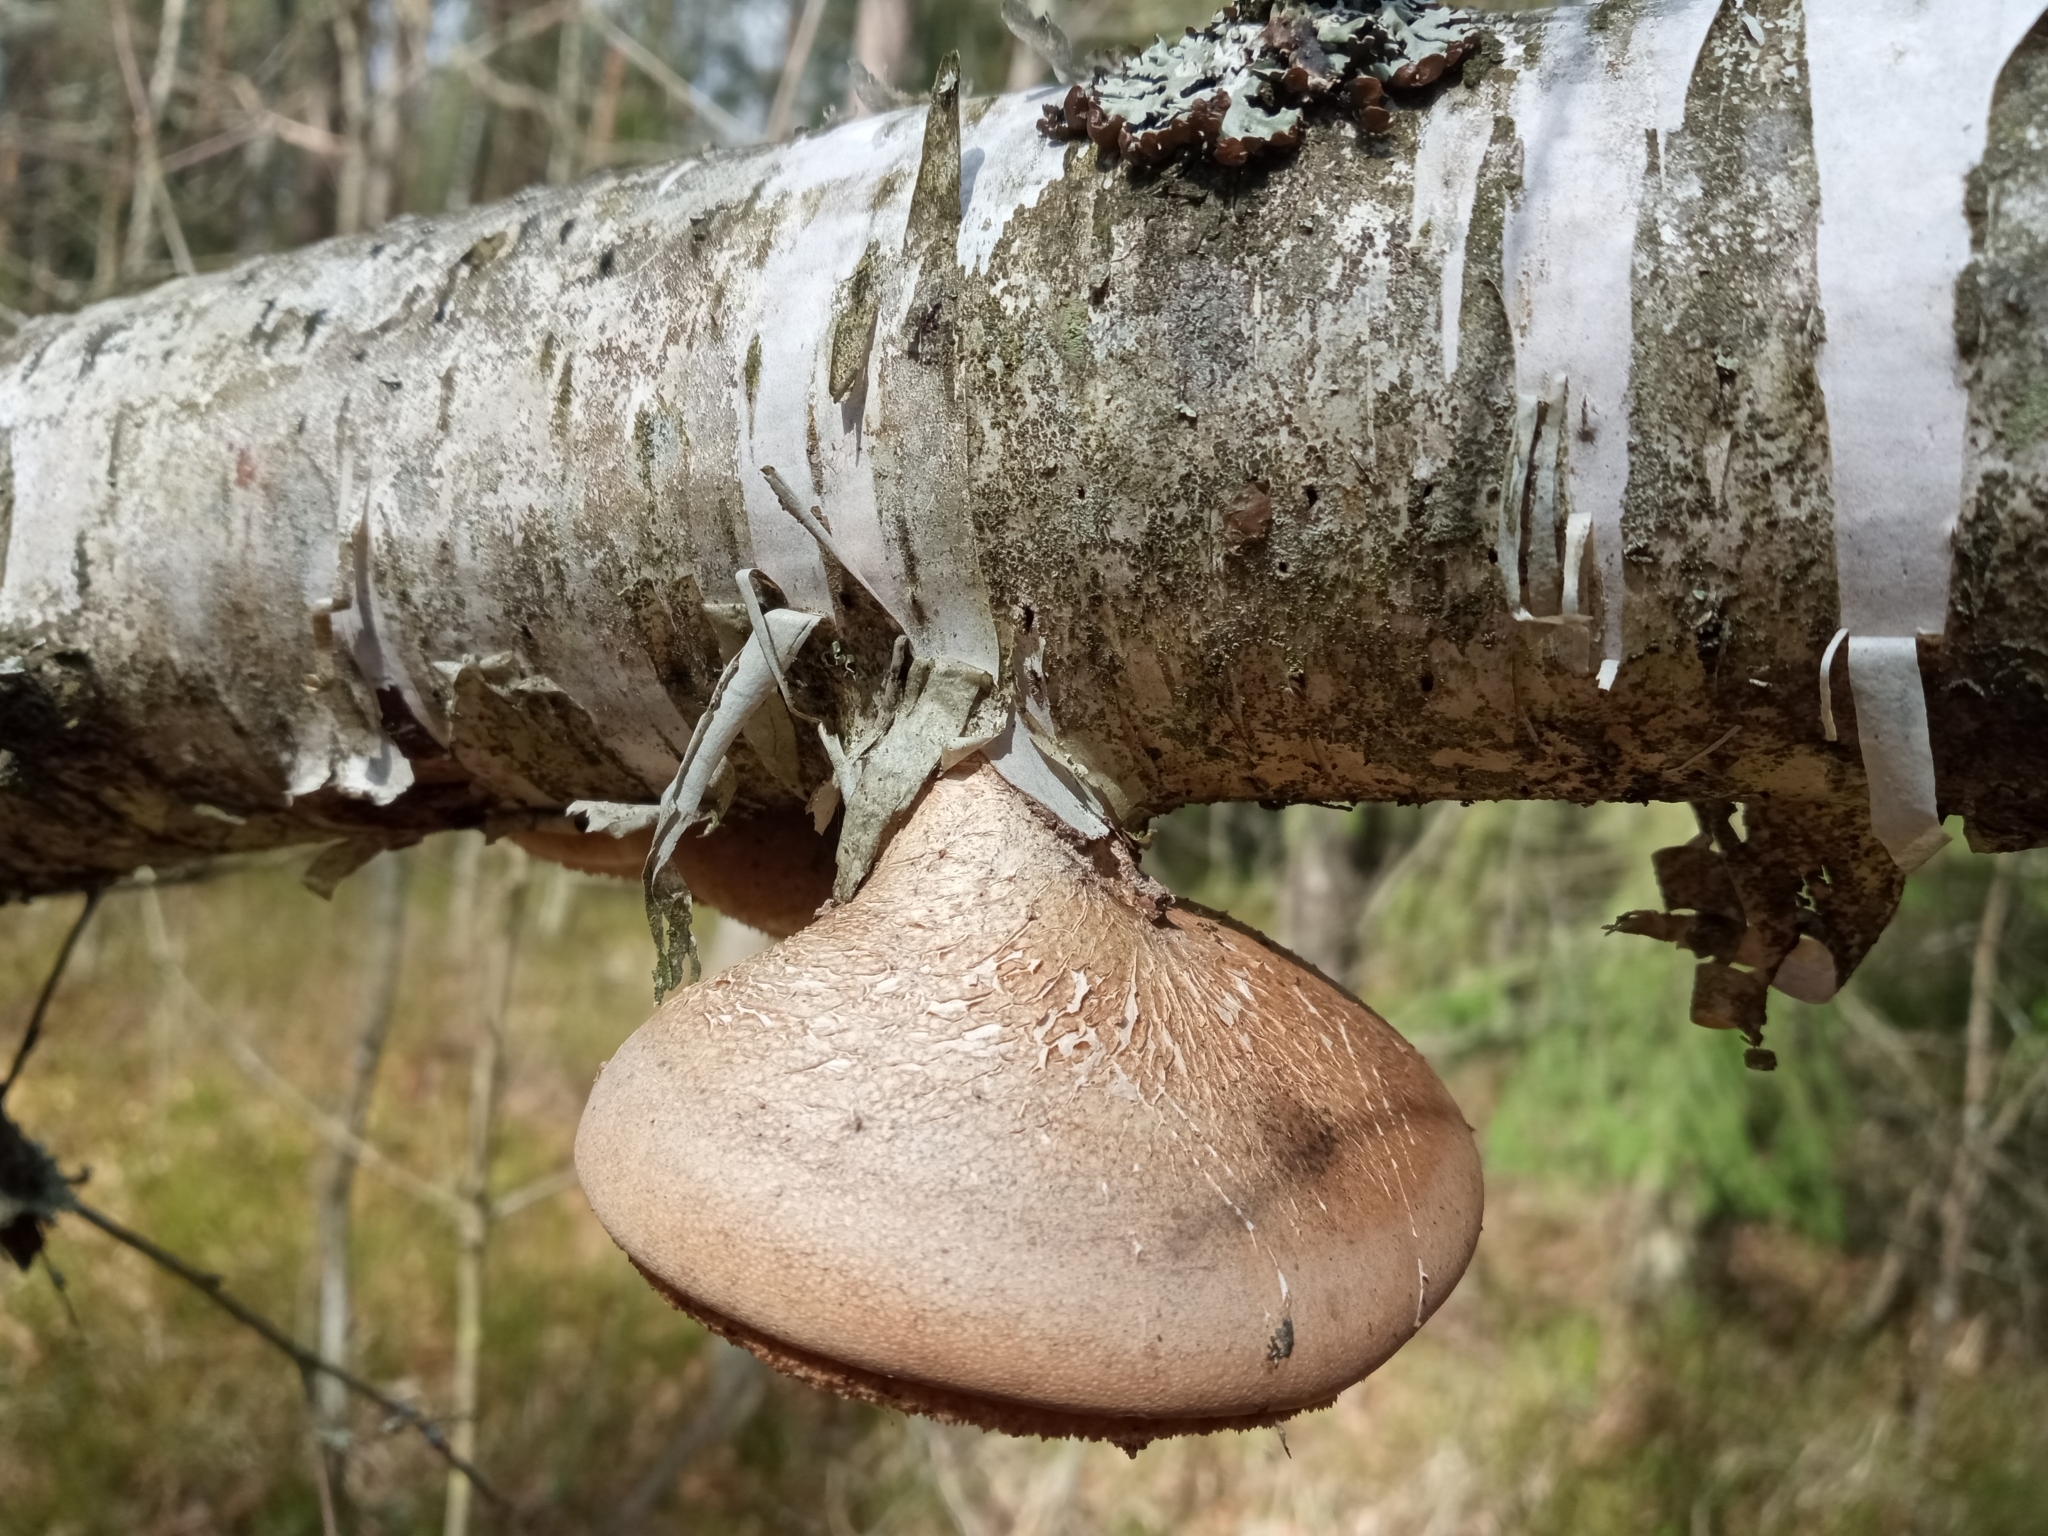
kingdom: Fungi
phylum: Basidiomycota
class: Agaricomycetes
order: Polyporales
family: Fomitopsidaceae
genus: Fomitopsis
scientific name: Fomitopsis betulina
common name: Birch polypore
